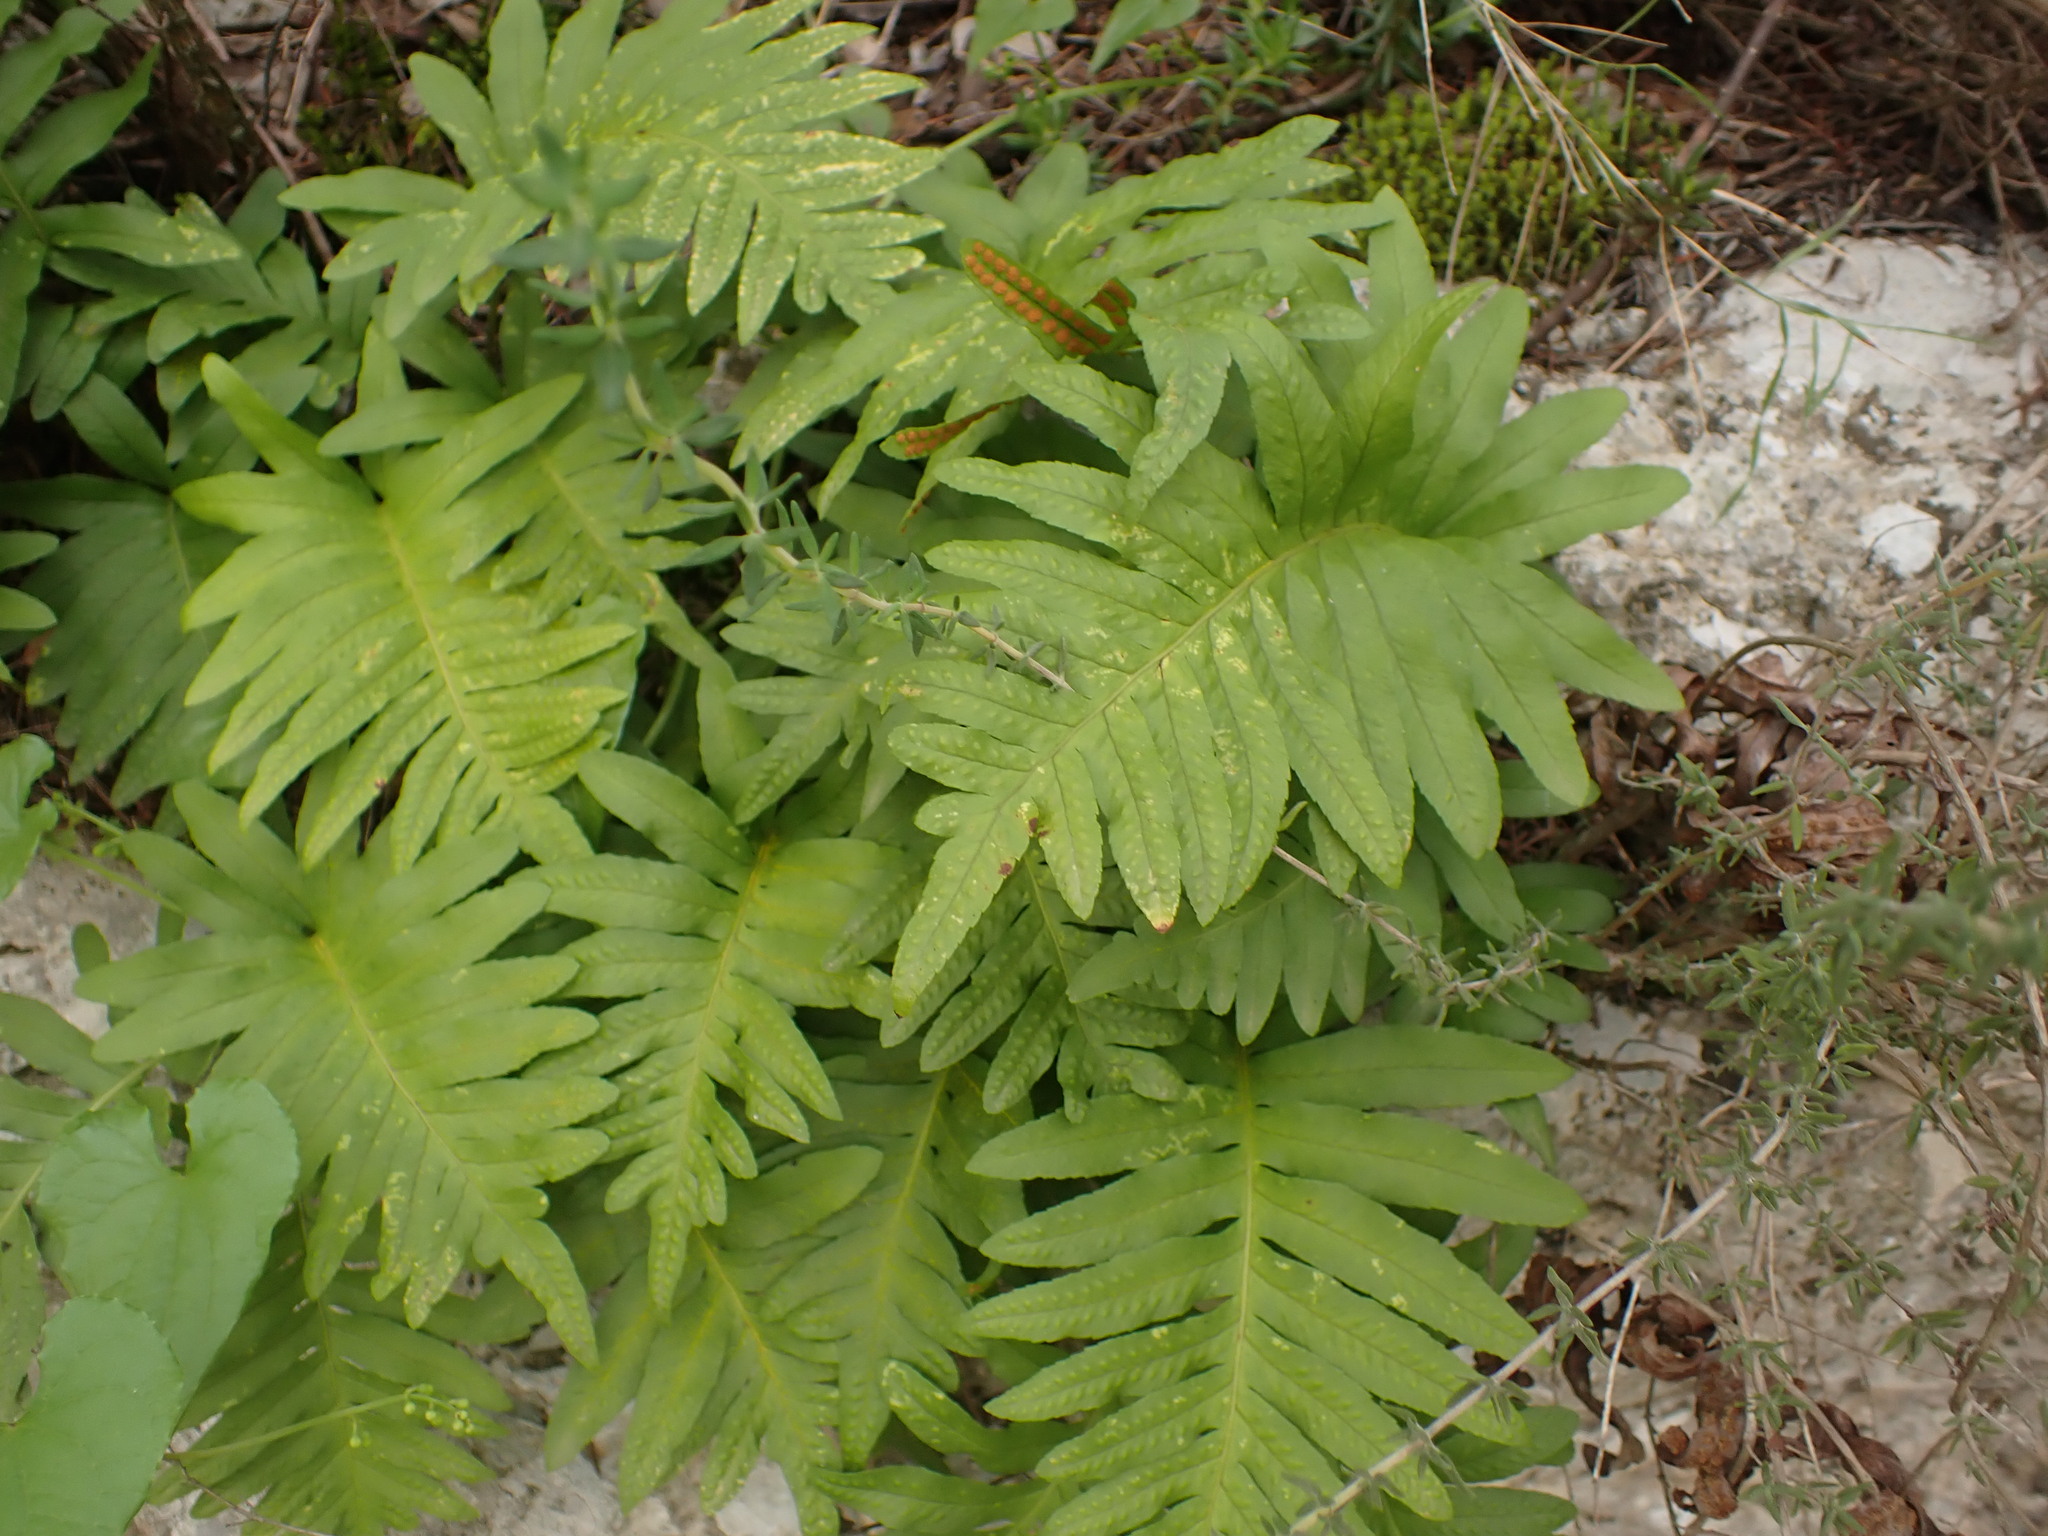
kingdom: Plantae
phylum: Tracheophyta
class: Polypodiopsida
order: Polypodiales
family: Polypodiaceae
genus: Polypodium
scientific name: Polypodium cambricum
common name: Southern polypody
